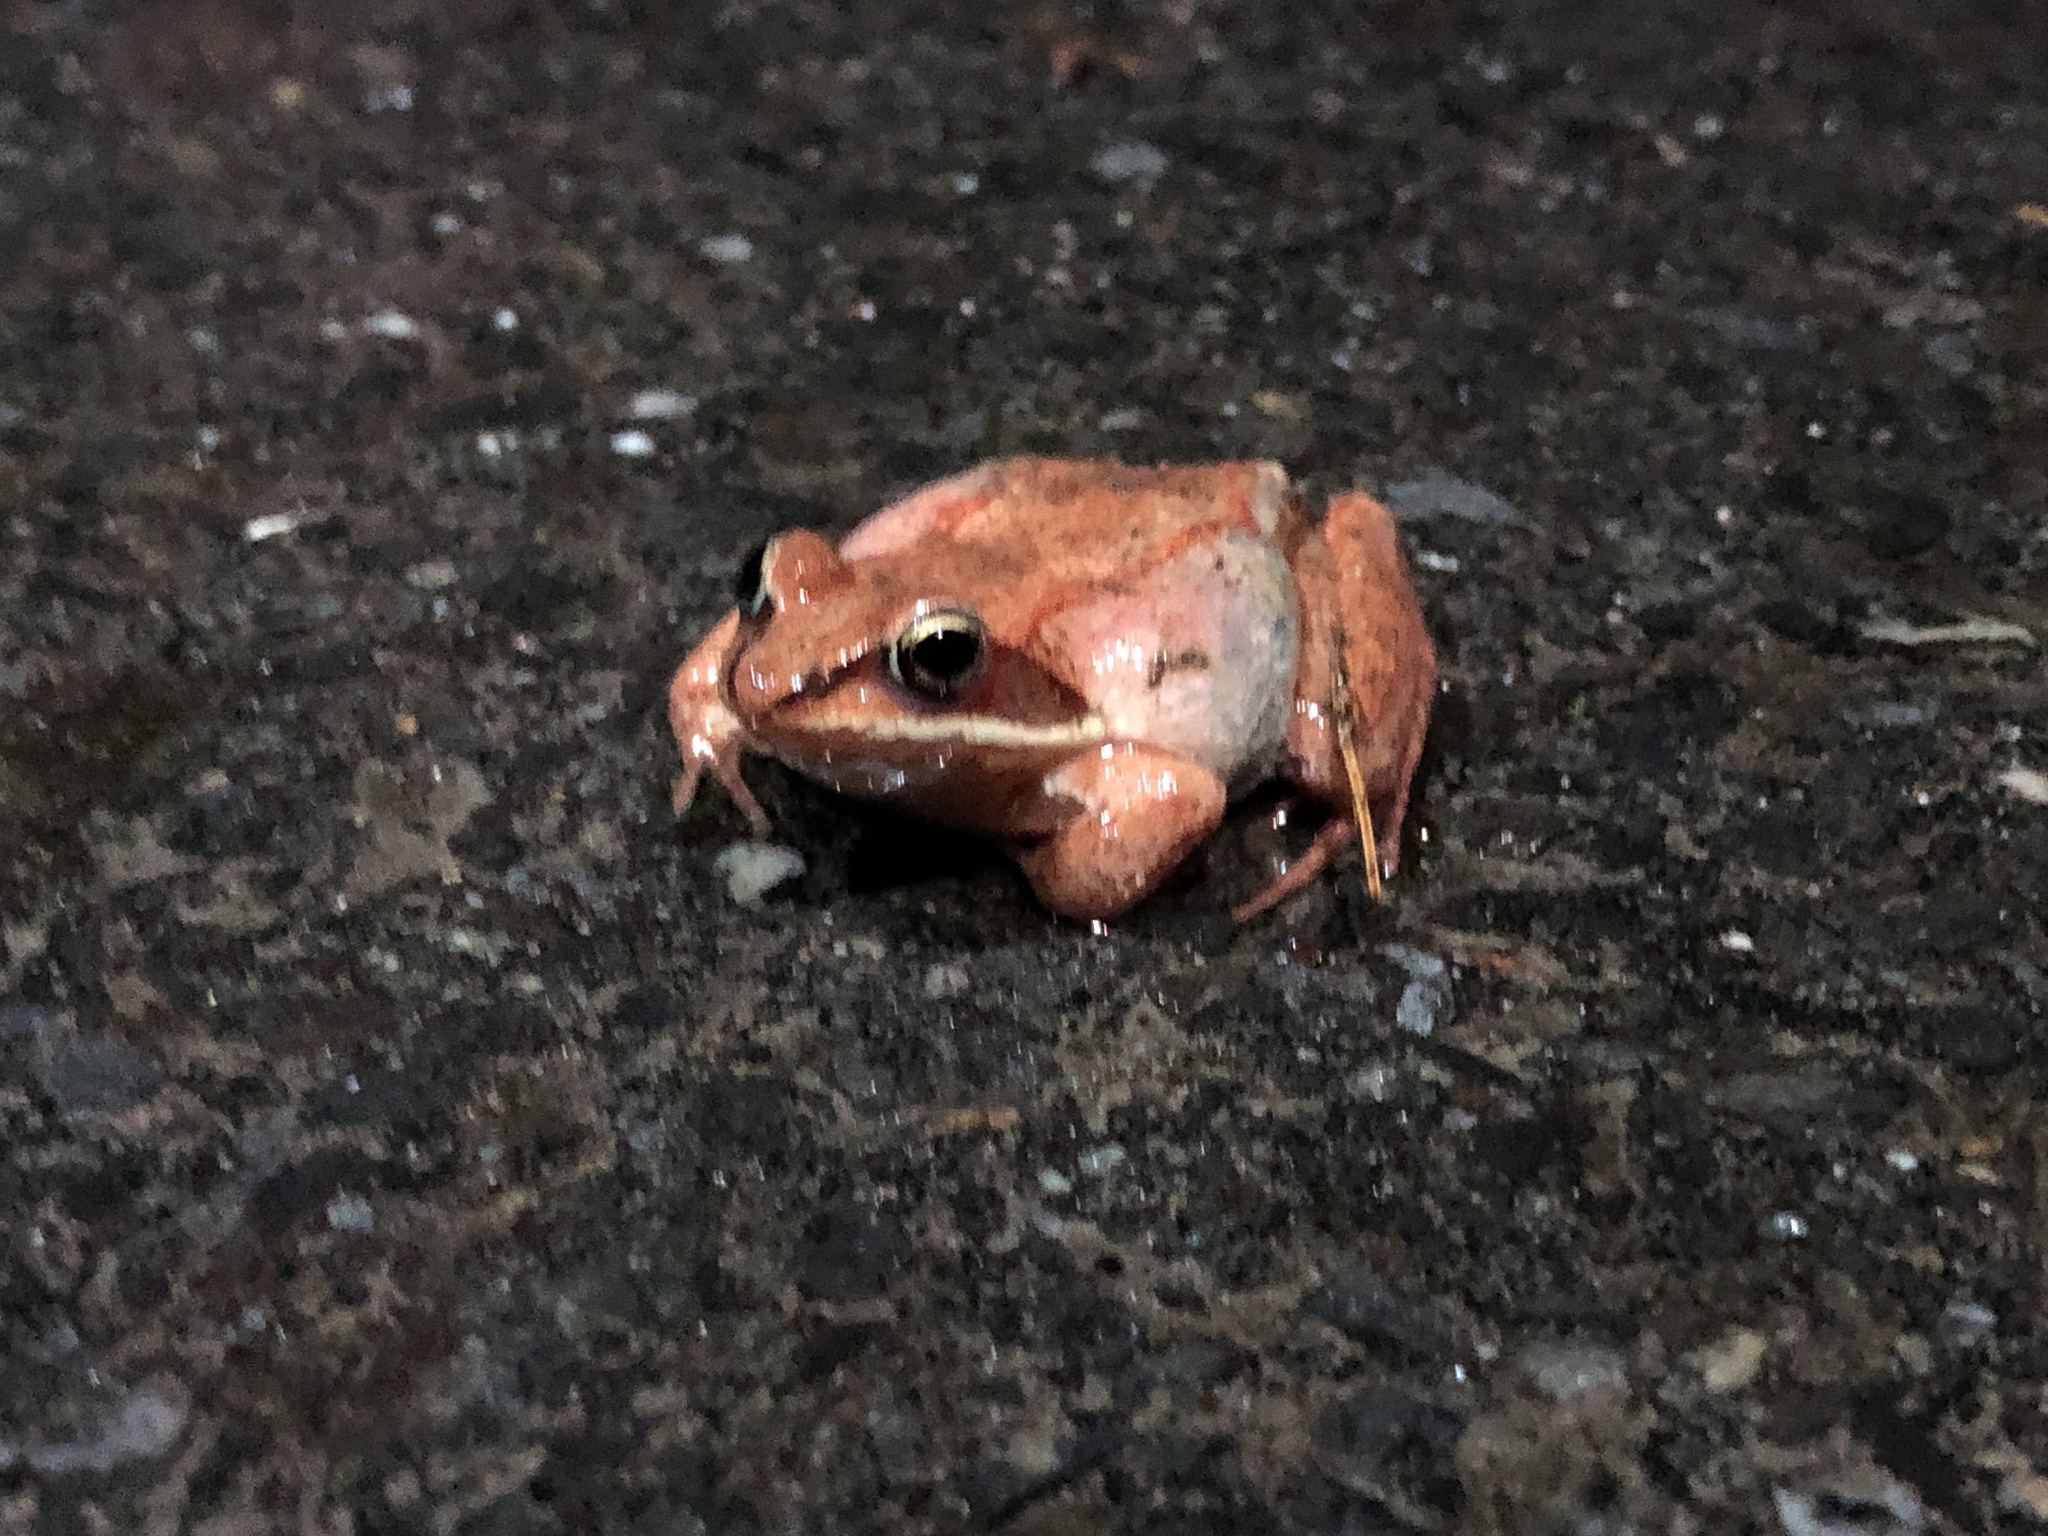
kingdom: Animalia
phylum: Chordata
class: Amphibia
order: Anura
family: Ranidae
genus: Lithobates
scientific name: Lithobates sylvaticus
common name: Wood frog
